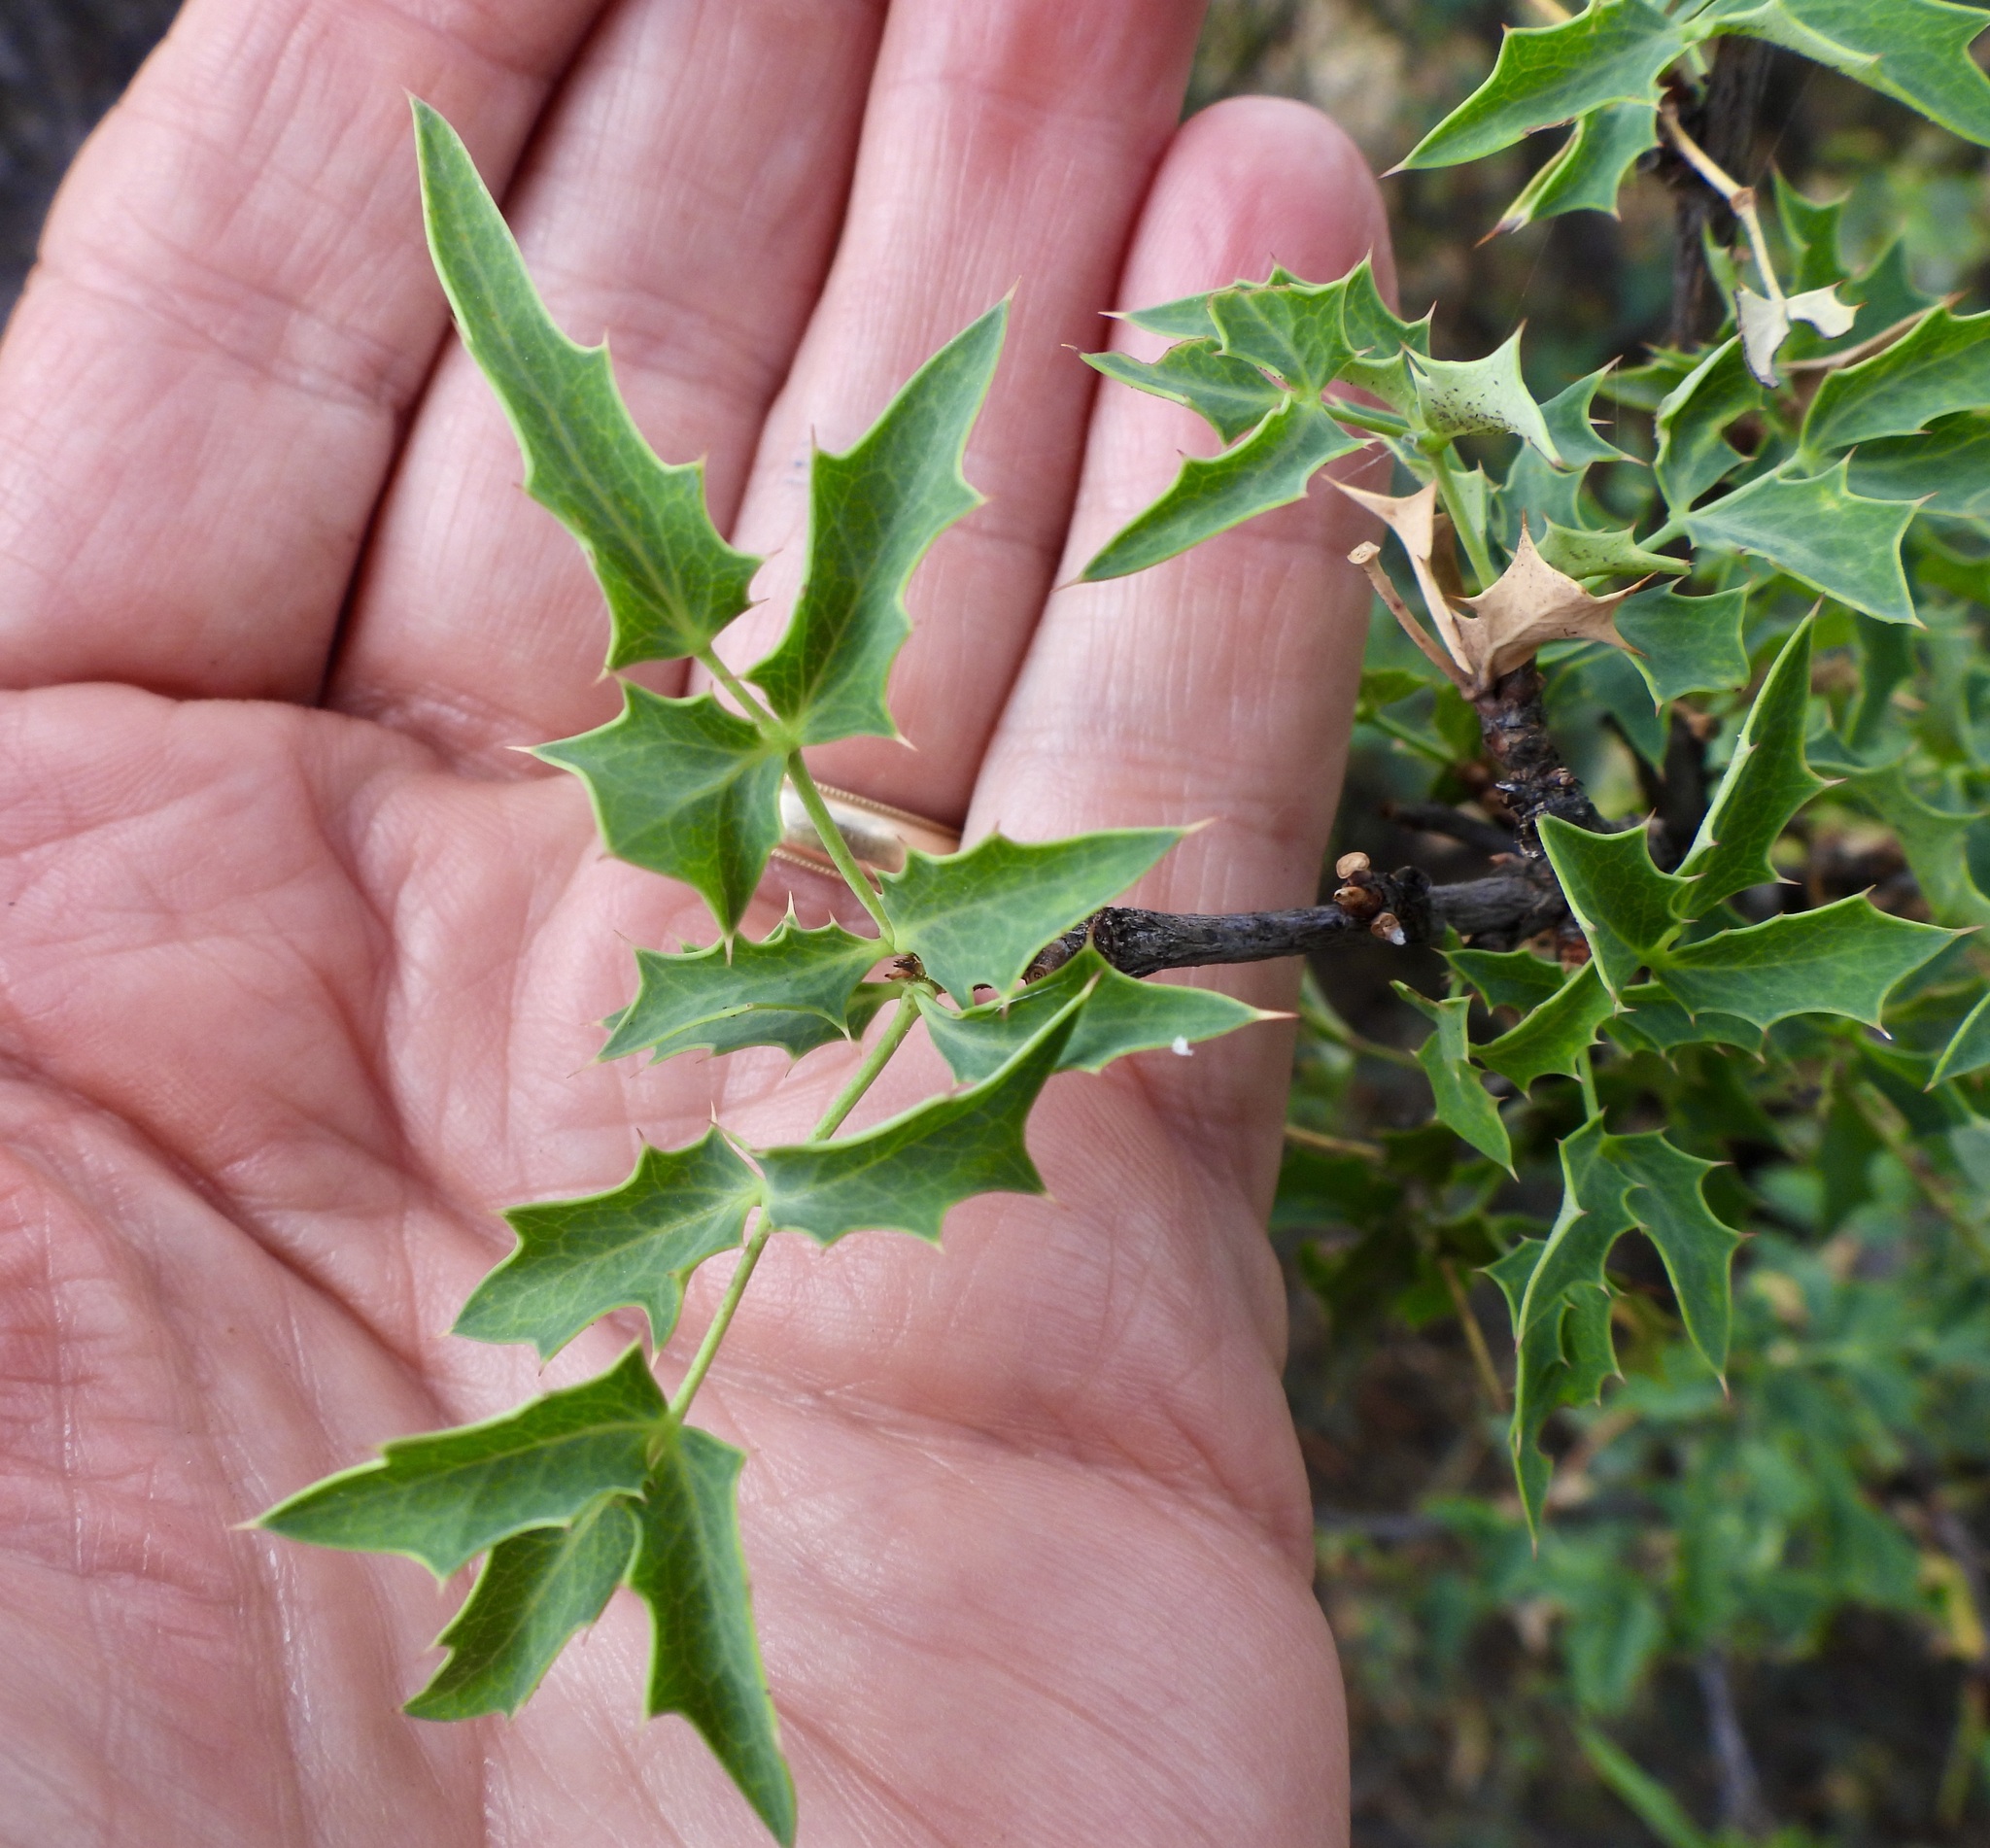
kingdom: Plantae
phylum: Tracheophyta
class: Magnoliopsida
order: Ranunculales
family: Berberidaceae
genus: Alloberberis
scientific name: Alloberberis haematocarpa
